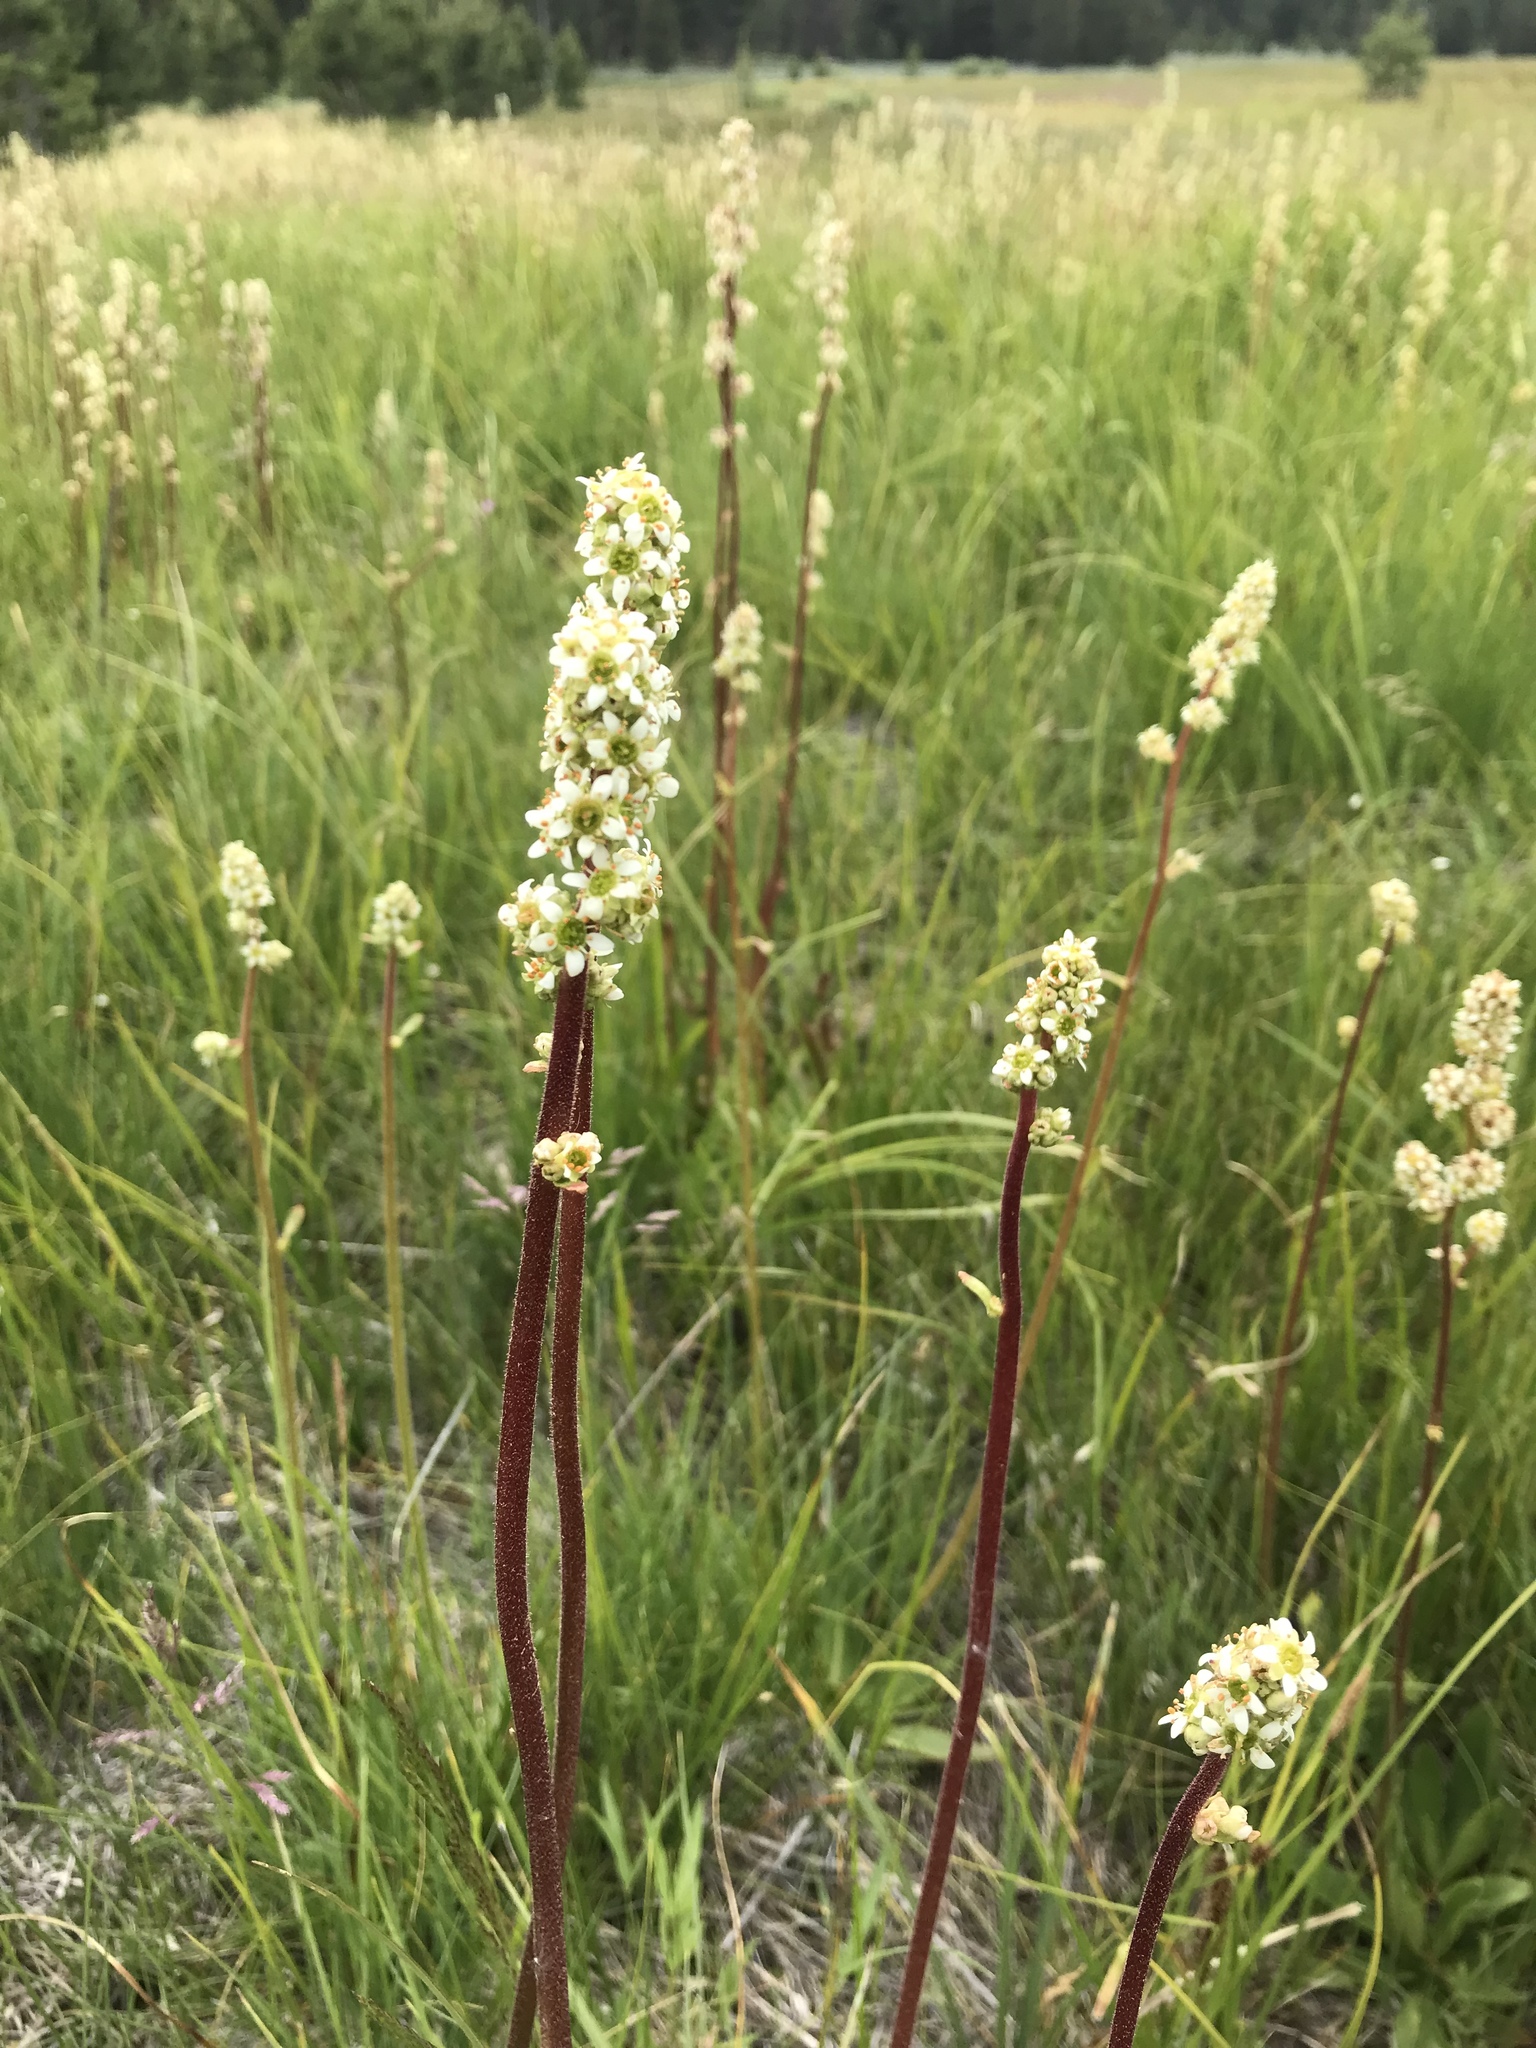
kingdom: Plantae
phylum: Tracheophyta
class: Magnoliopsida
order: Saxifragales
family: Saxifragaceae
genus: Micranthes
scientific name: Micranthes oregana
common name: Bog saxifrage
